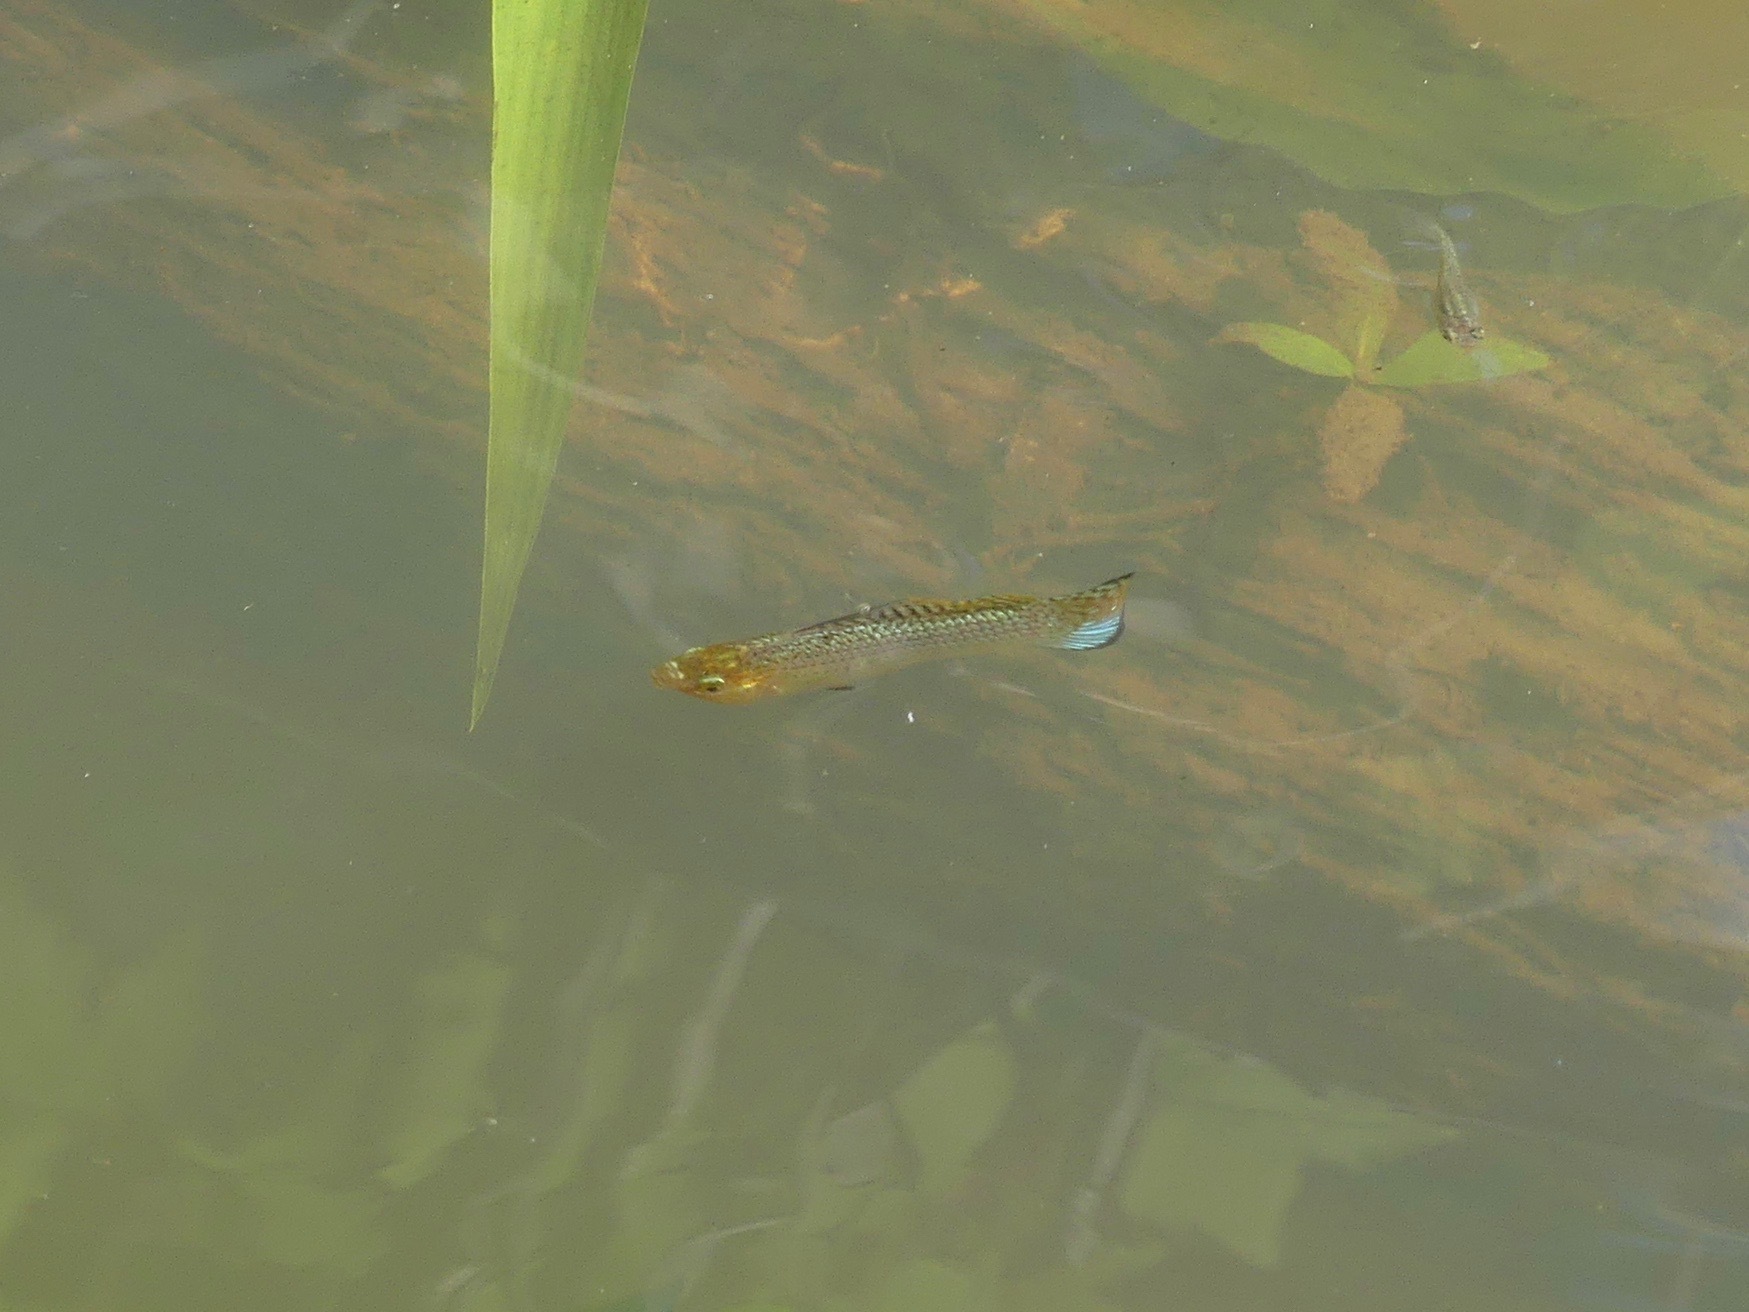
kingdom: Animalia
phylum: Chordata
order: Cyprinodontiformes
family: Poeciliidae
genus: Poecilia
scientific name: Poecilia latipinna
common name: Sailfin molly
